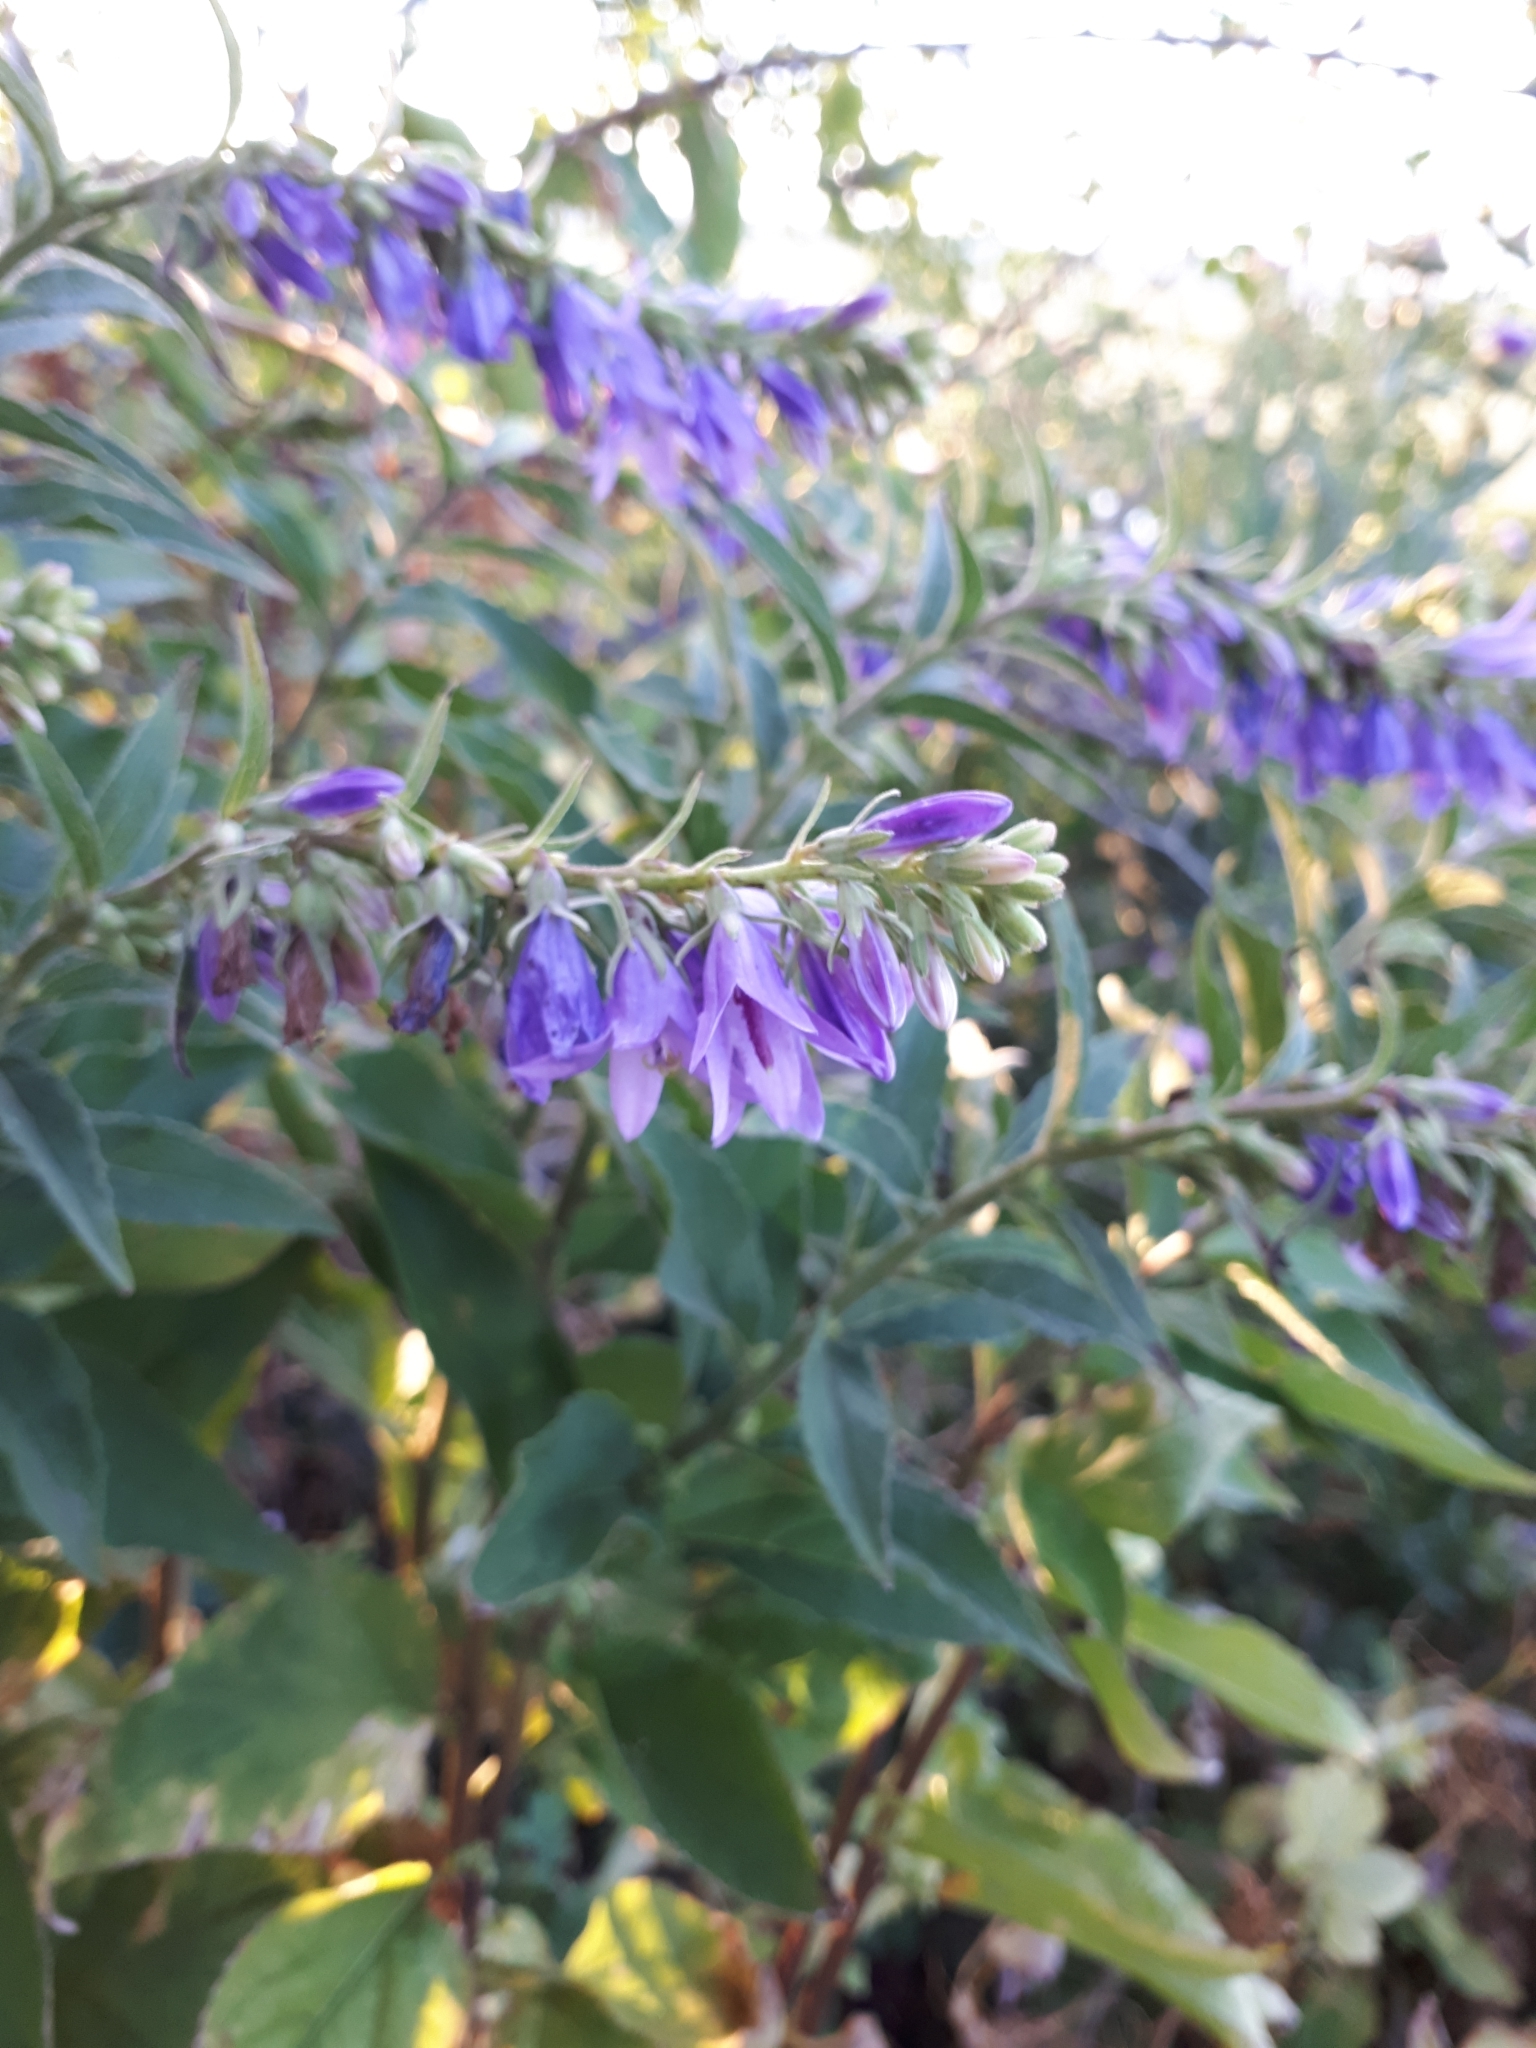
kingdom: Plantae
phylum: Tracheophyta
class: Magnoliopsida
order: Asterales
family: Campanulaceae
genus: Campanula
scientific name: Campanula rapunculoides
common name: Creeping bellflower
